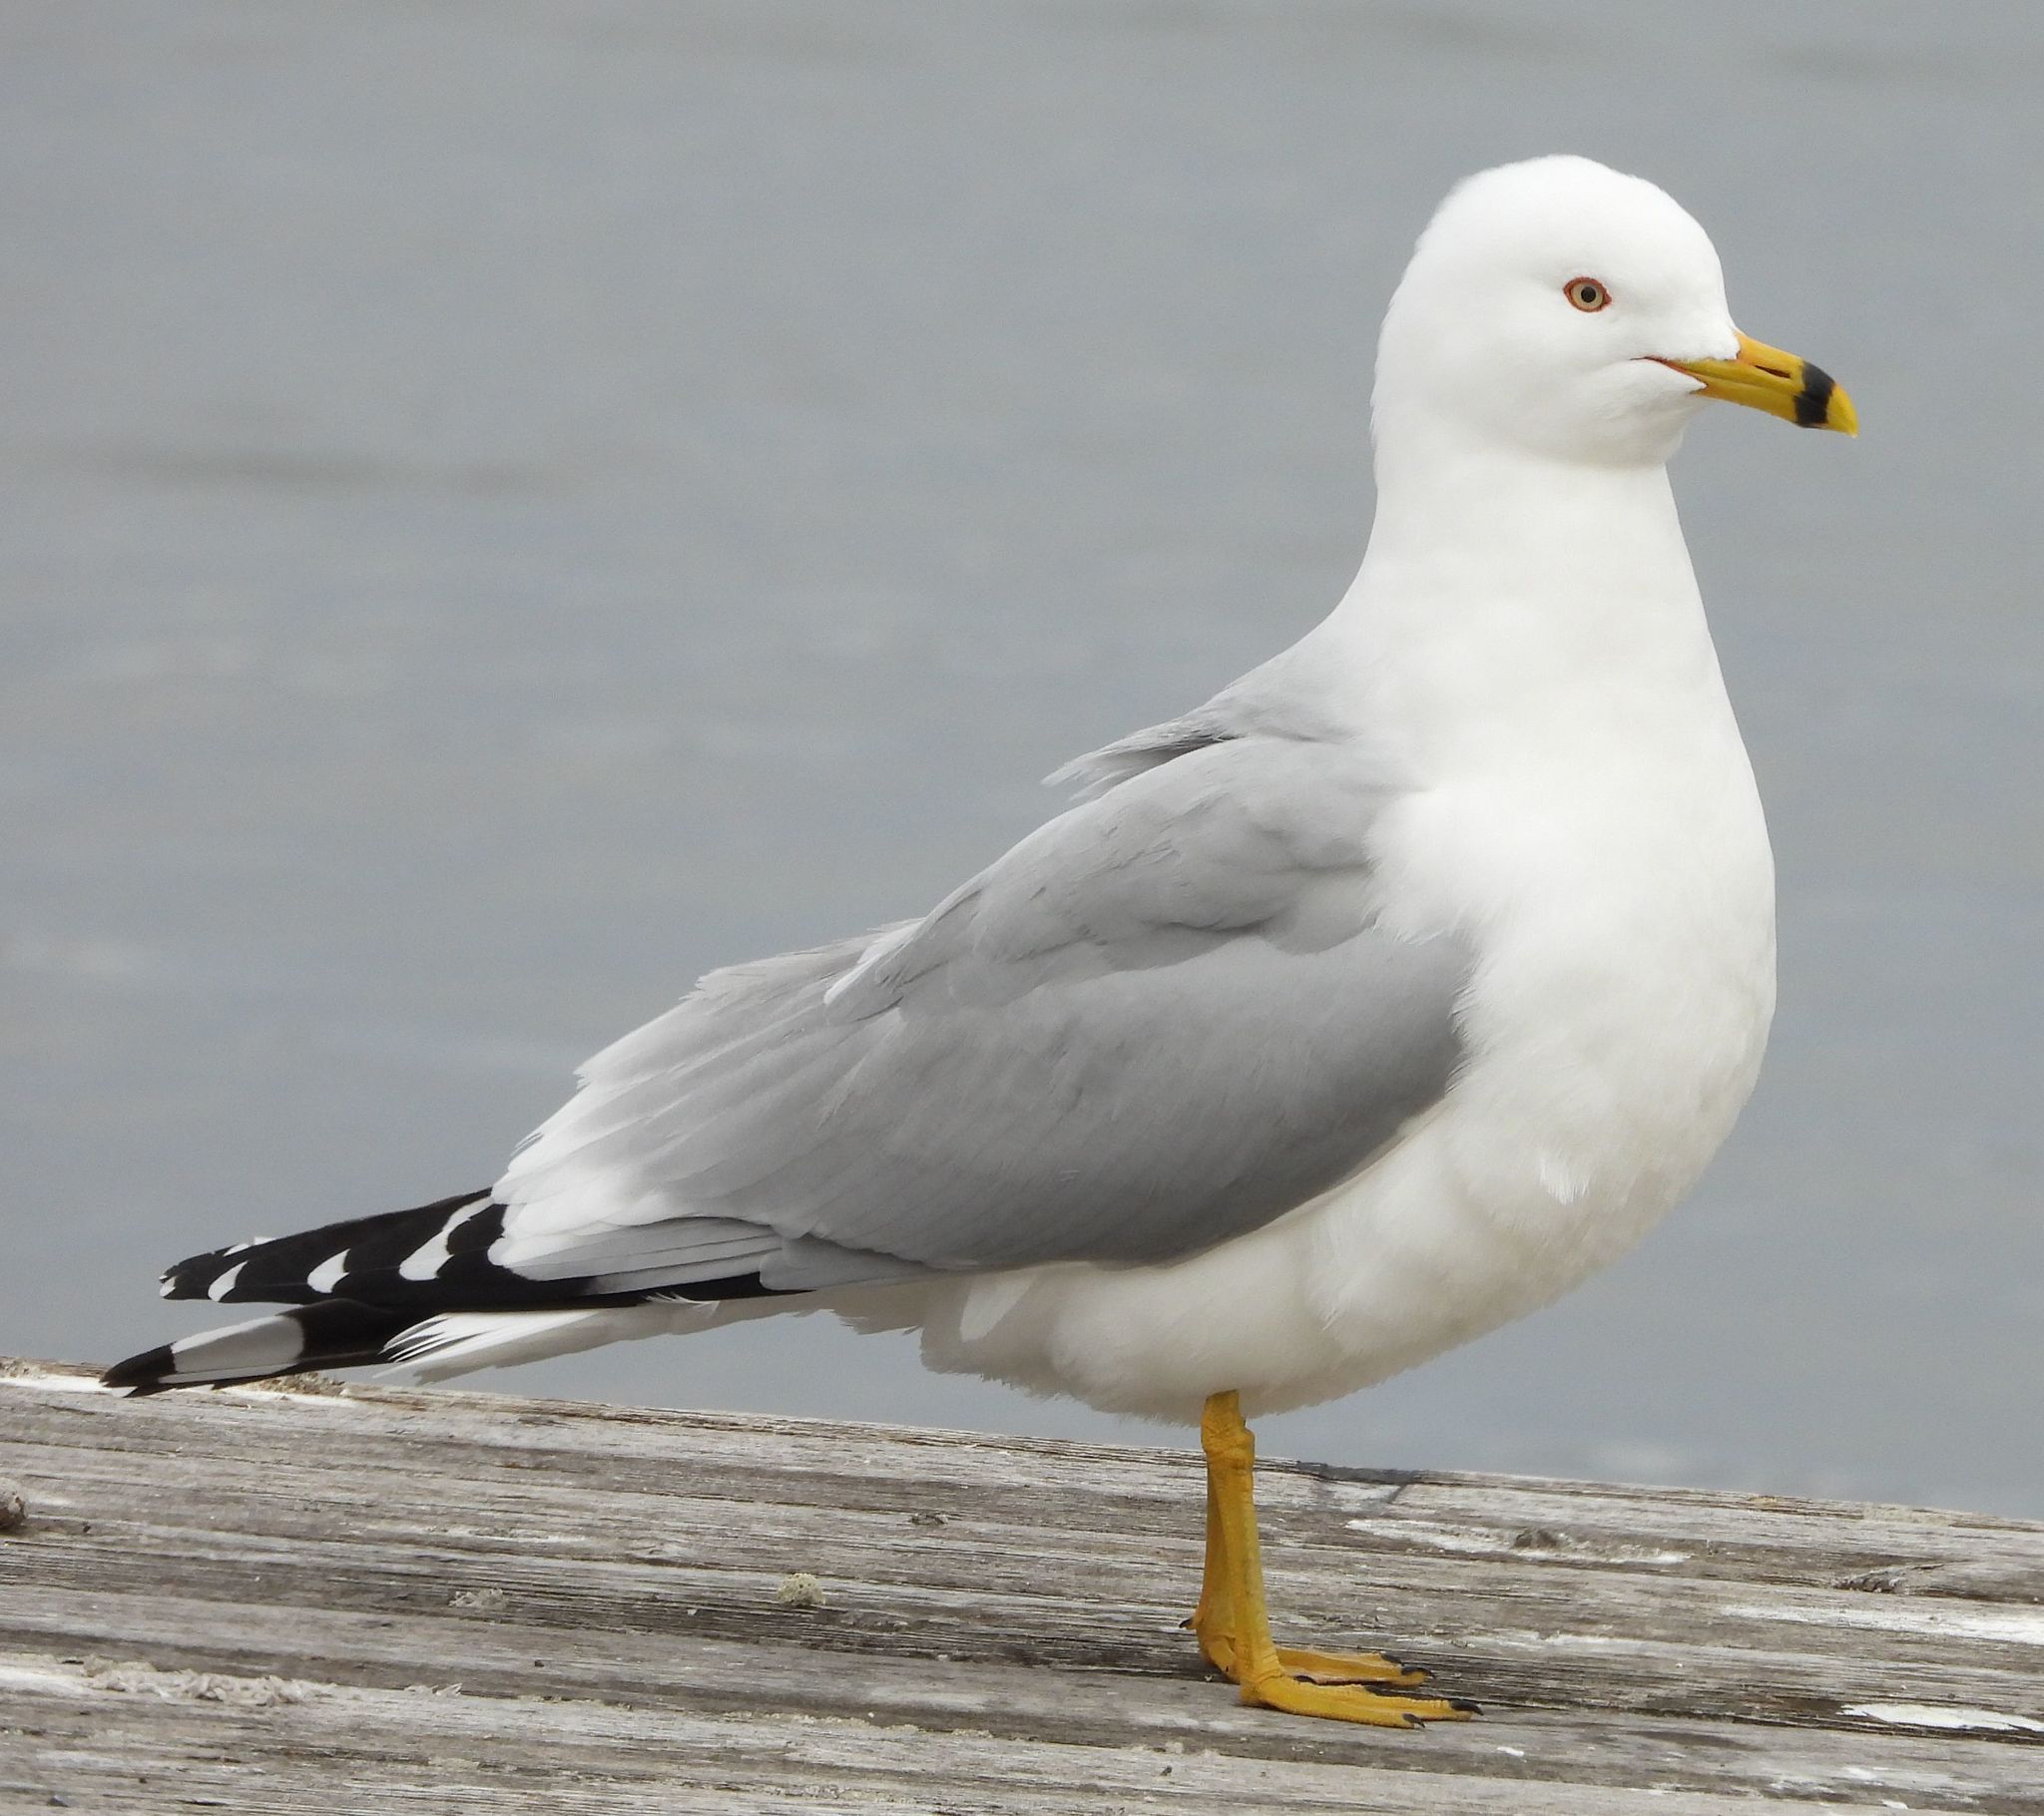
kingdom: Animalia
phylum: Chordata
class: Aves
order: Charadriiformes
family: Laridae
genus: Larus
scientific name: Larus delawarensis
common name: Ring-billed gull
